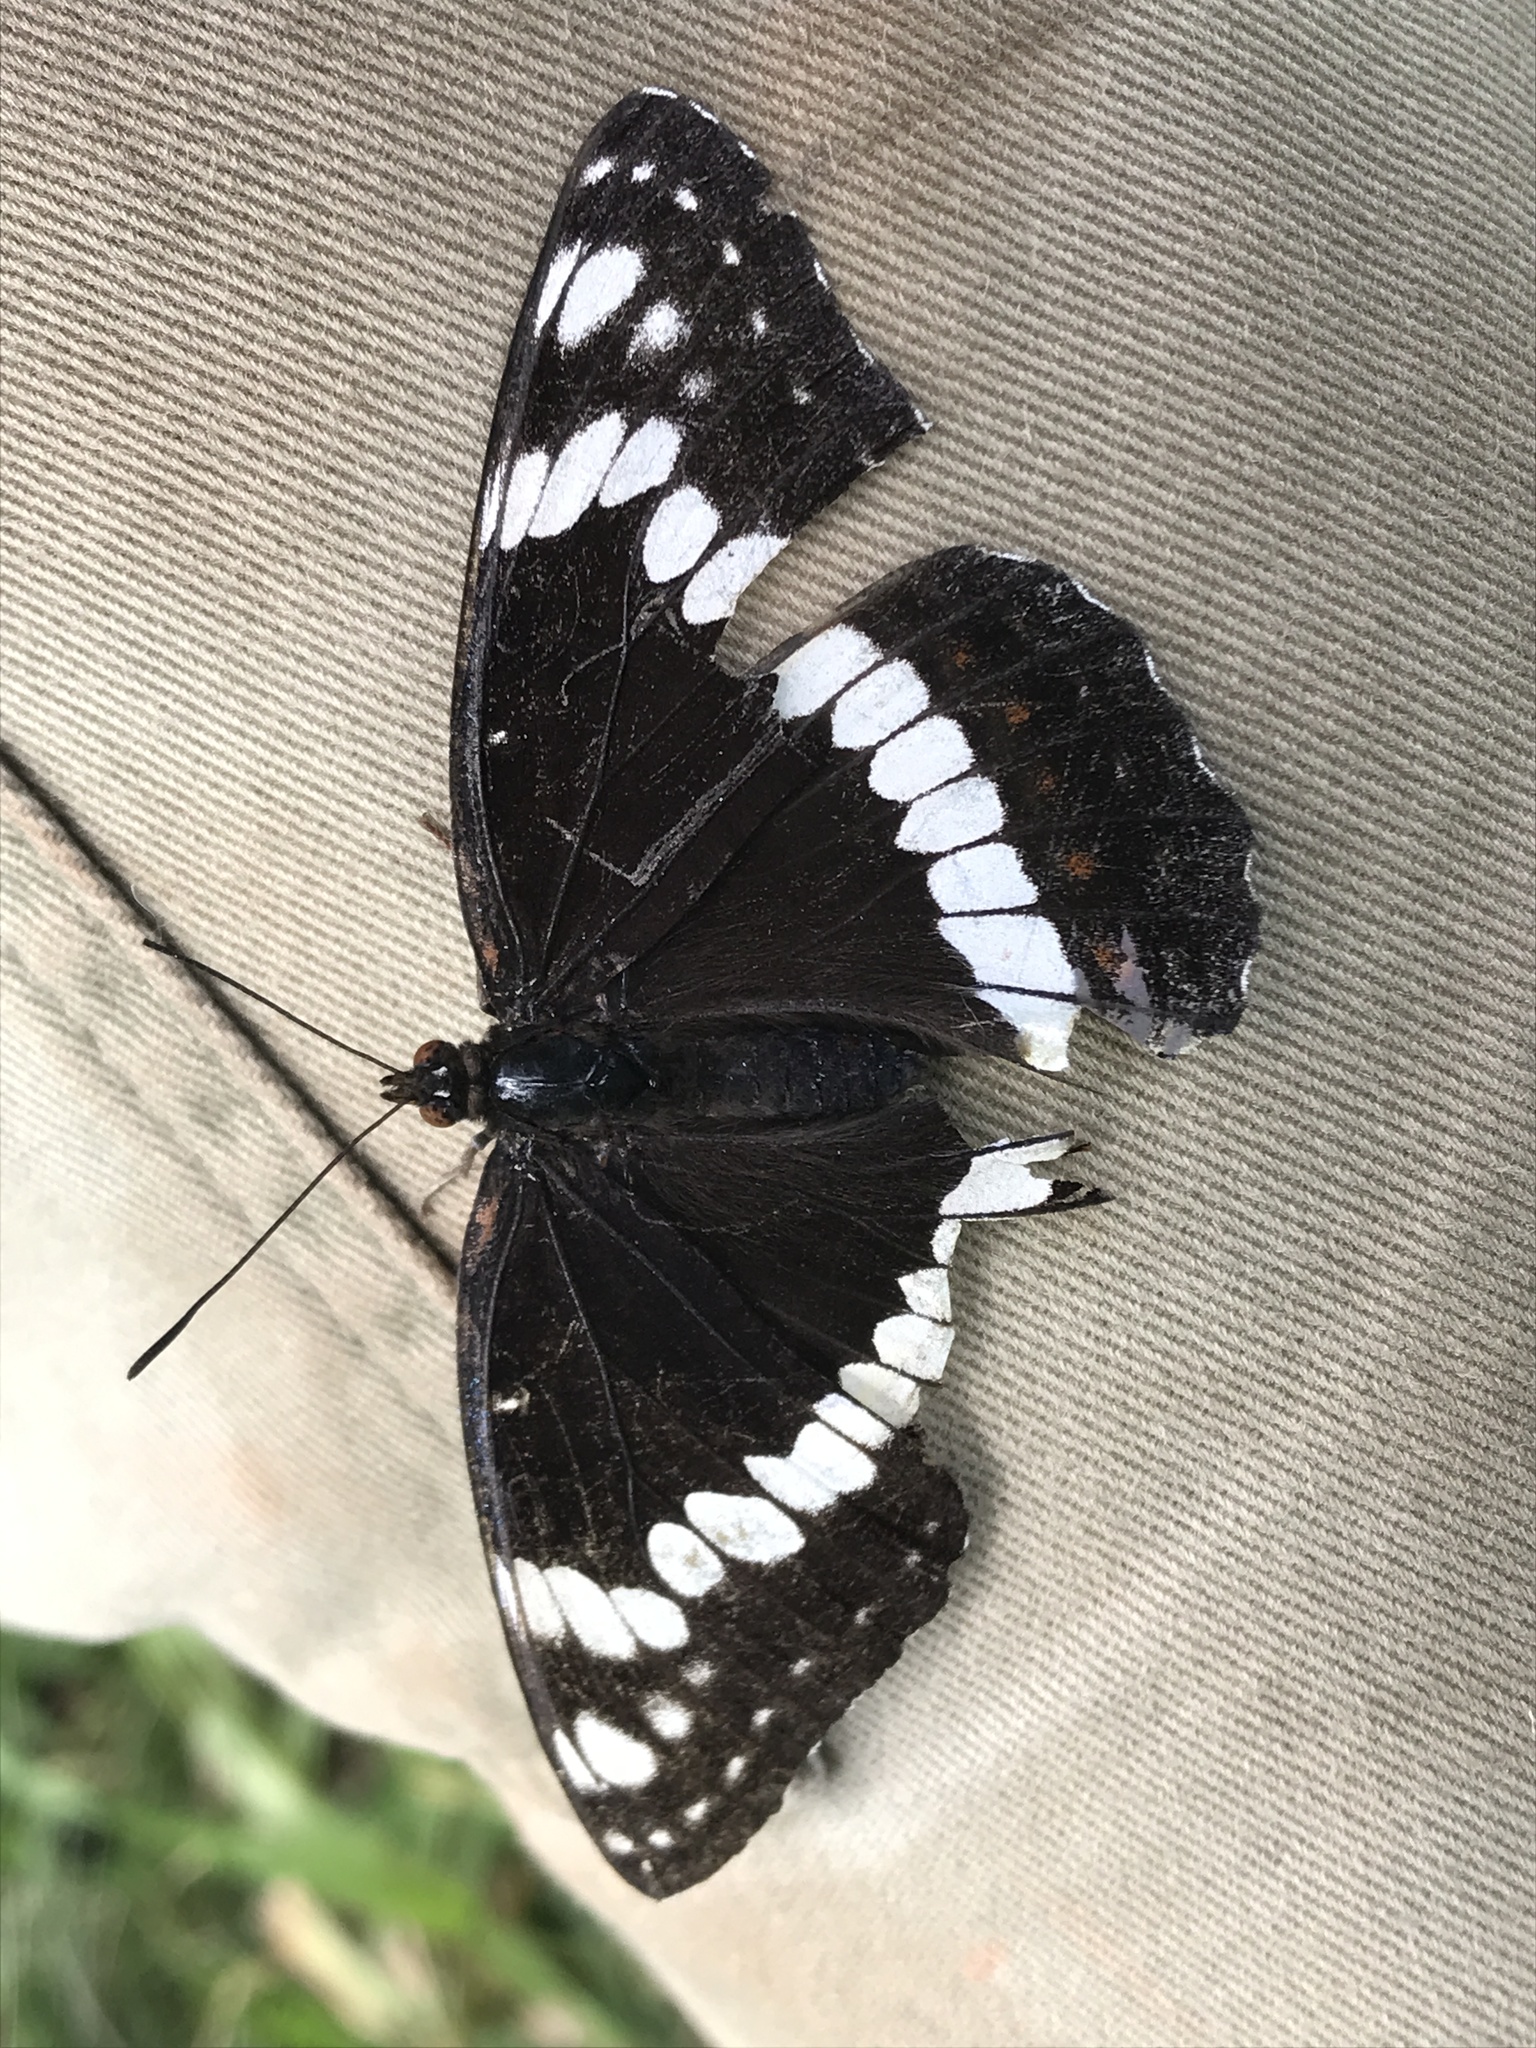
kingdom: Animalia
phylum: Arthropoda
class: Insecta
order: Lepidoptera
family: Nymphalidae
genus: Limenitis
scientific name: Limenitis weidemeyerii
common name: Weidemeyer's admiral
